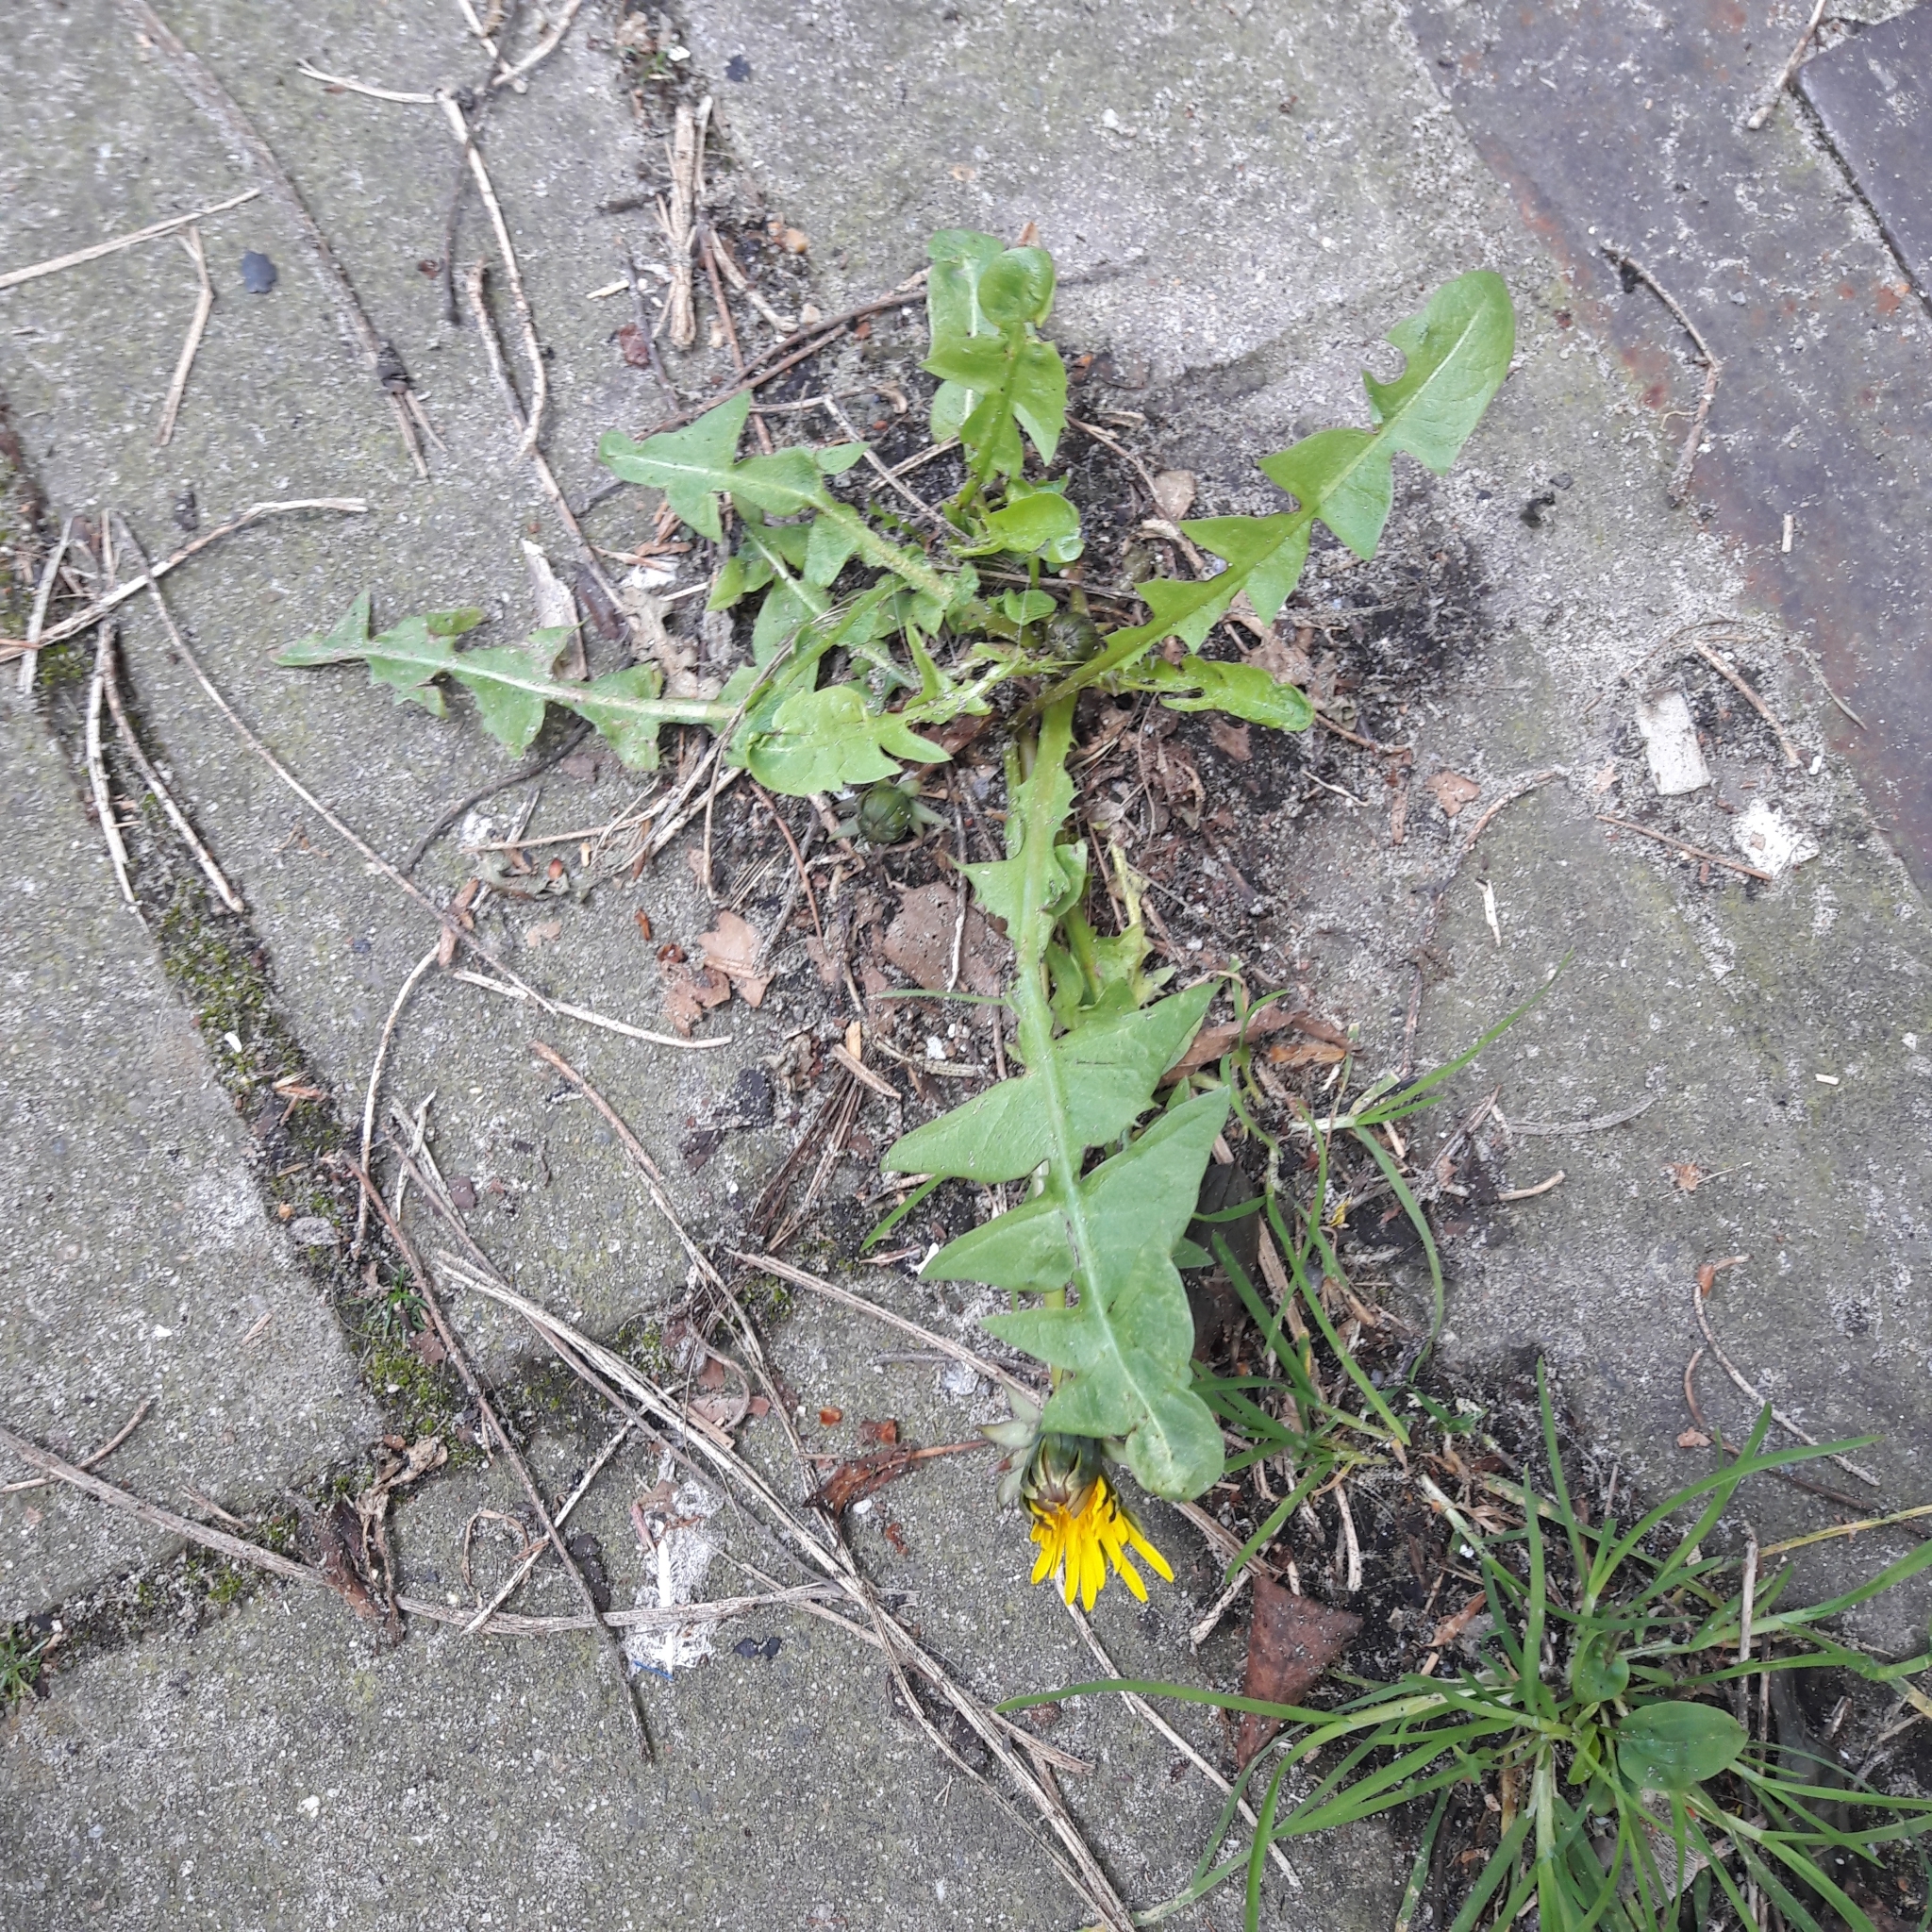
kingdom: Plantae
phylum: Tracheophyta
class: Magnoliopsida
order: Asterales
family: Asteraceae
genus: Taraxacum
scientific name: Taraxacum officinale
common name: Common dandelion
